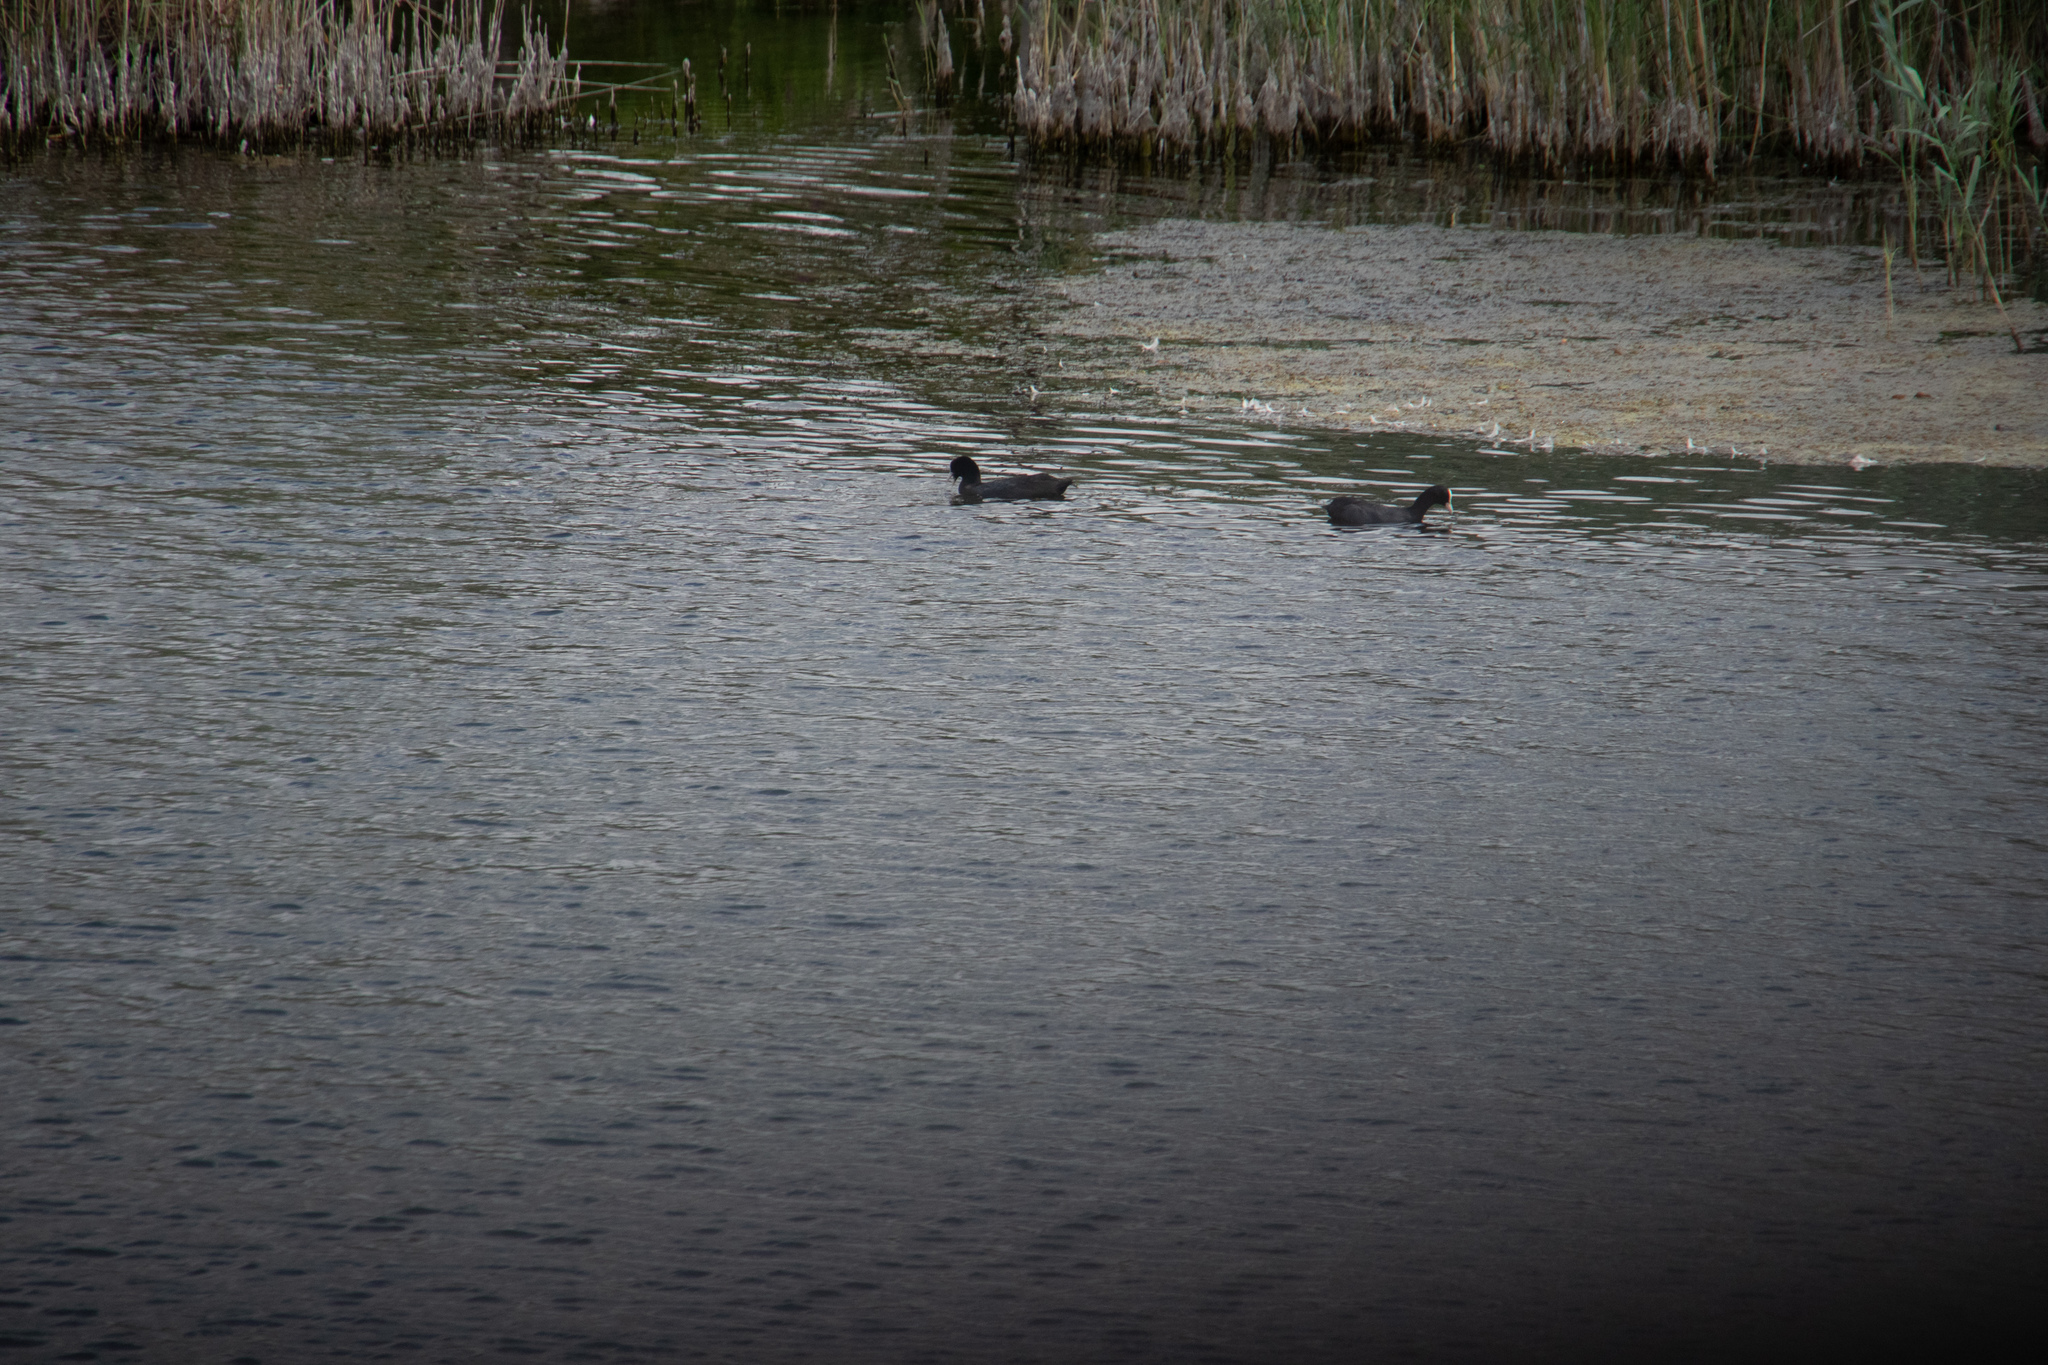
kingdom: Animalia
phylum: Chordata
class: Aves
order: Gruiformes
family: Rallidae
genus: Fulica
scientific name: Fulica atra
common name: Eurasian coot
